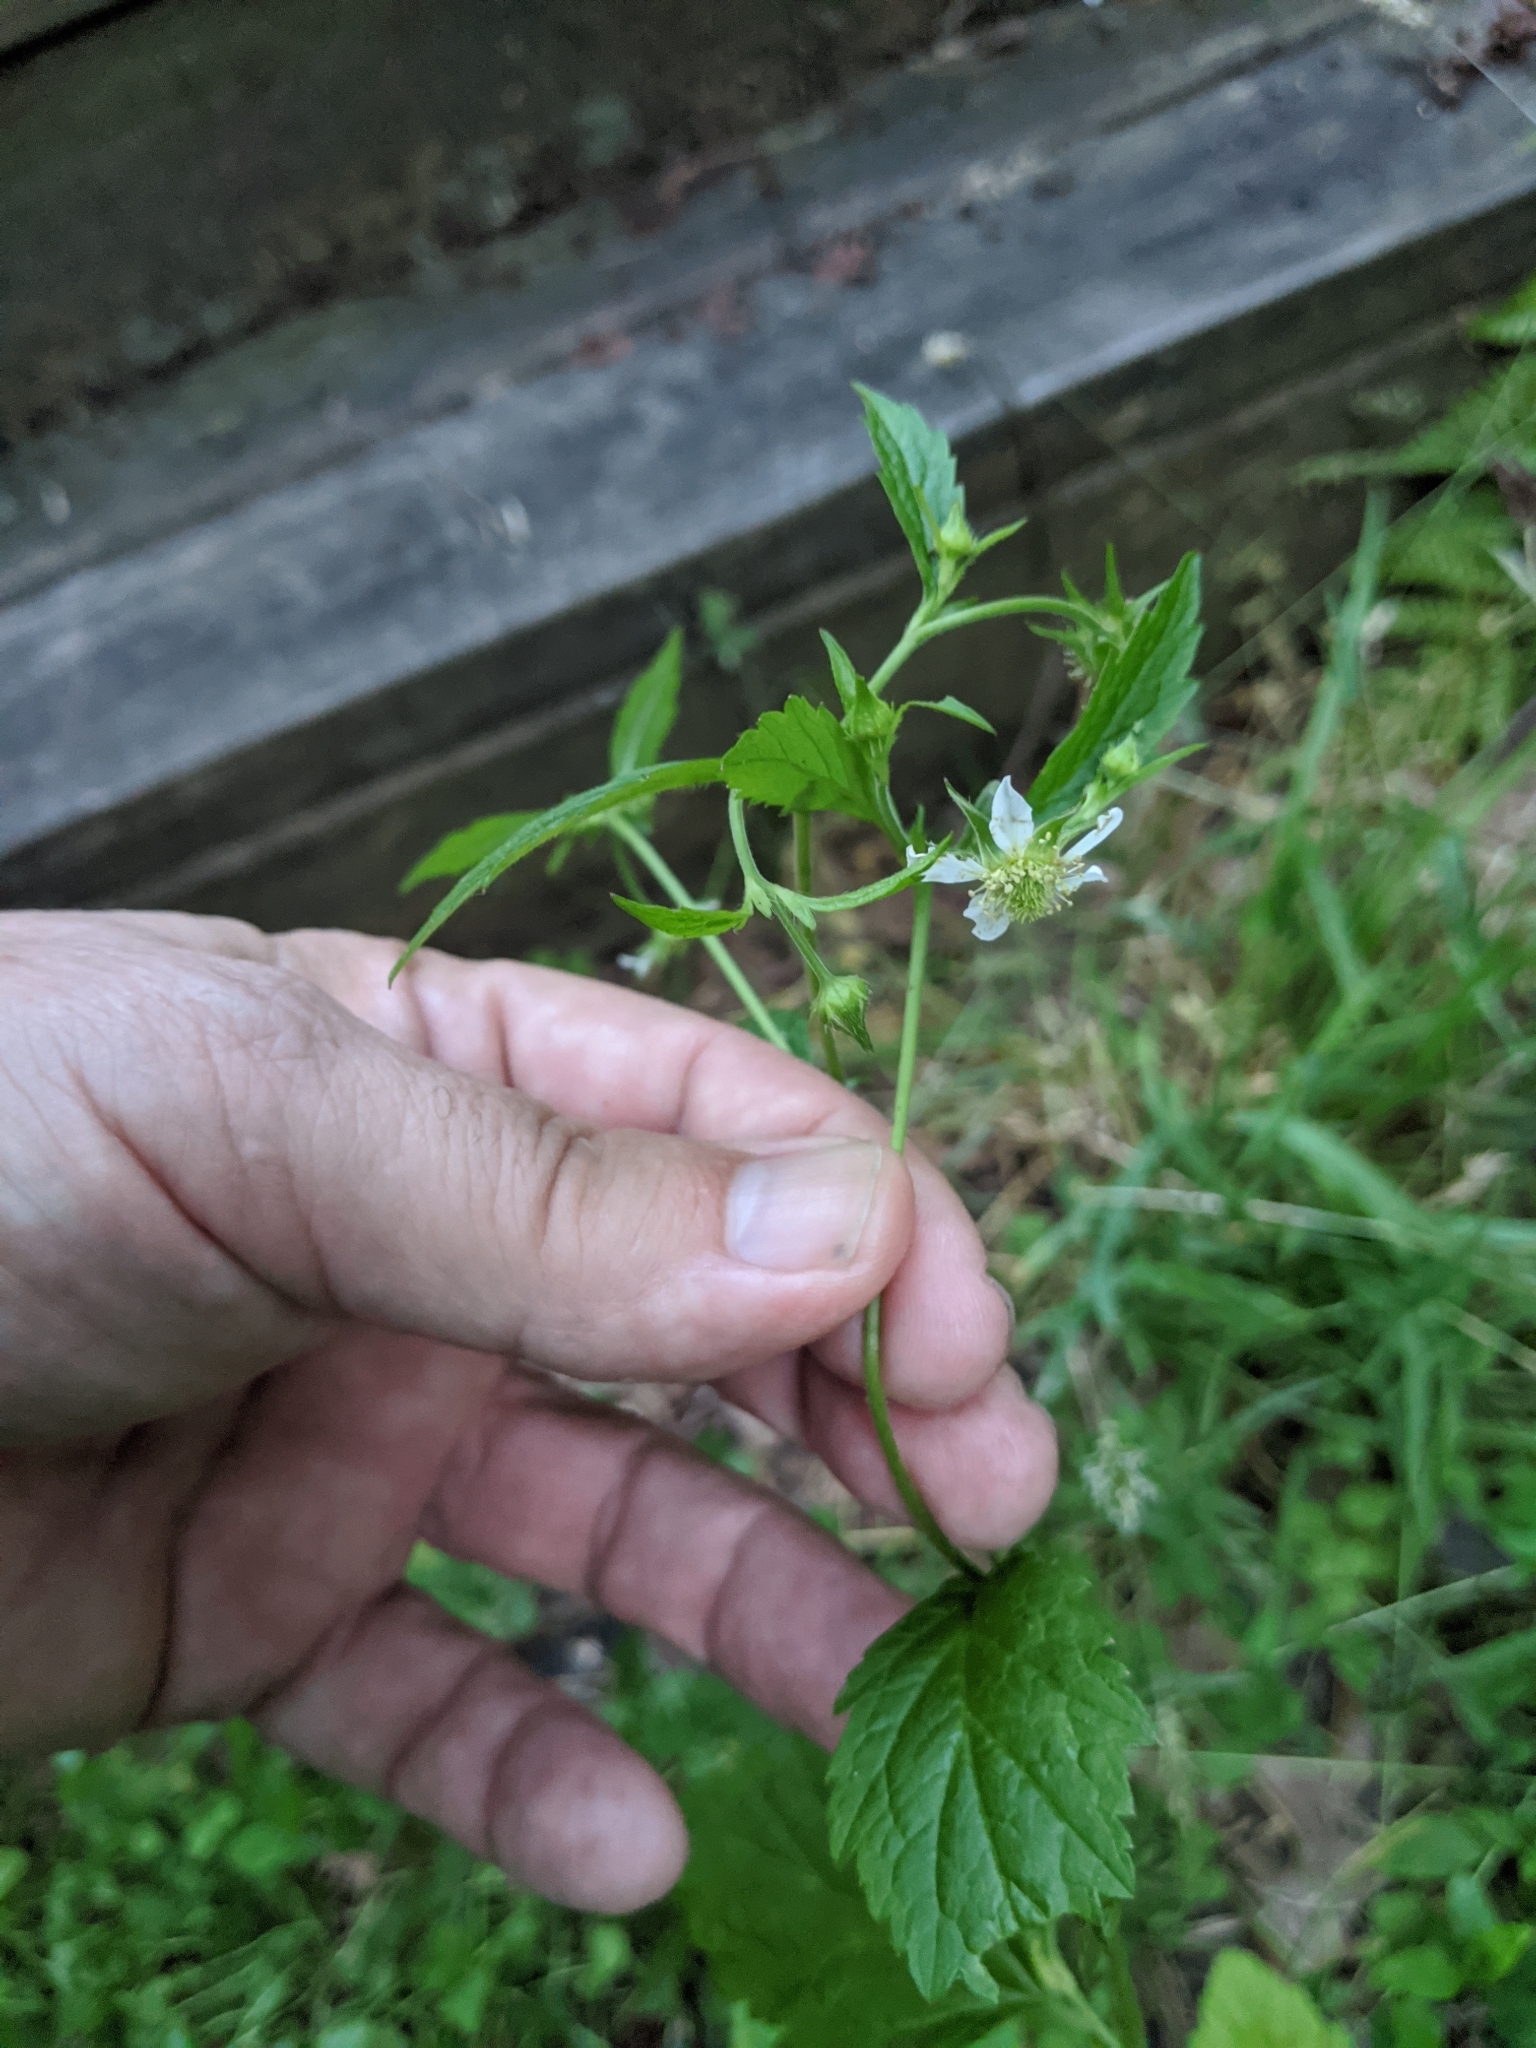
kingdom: Plantae
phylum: Tracheophyta
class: Magnoliopsida
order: Rosales
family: Rosaceae
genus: Geum
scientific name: Geum canadense
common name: White avens
